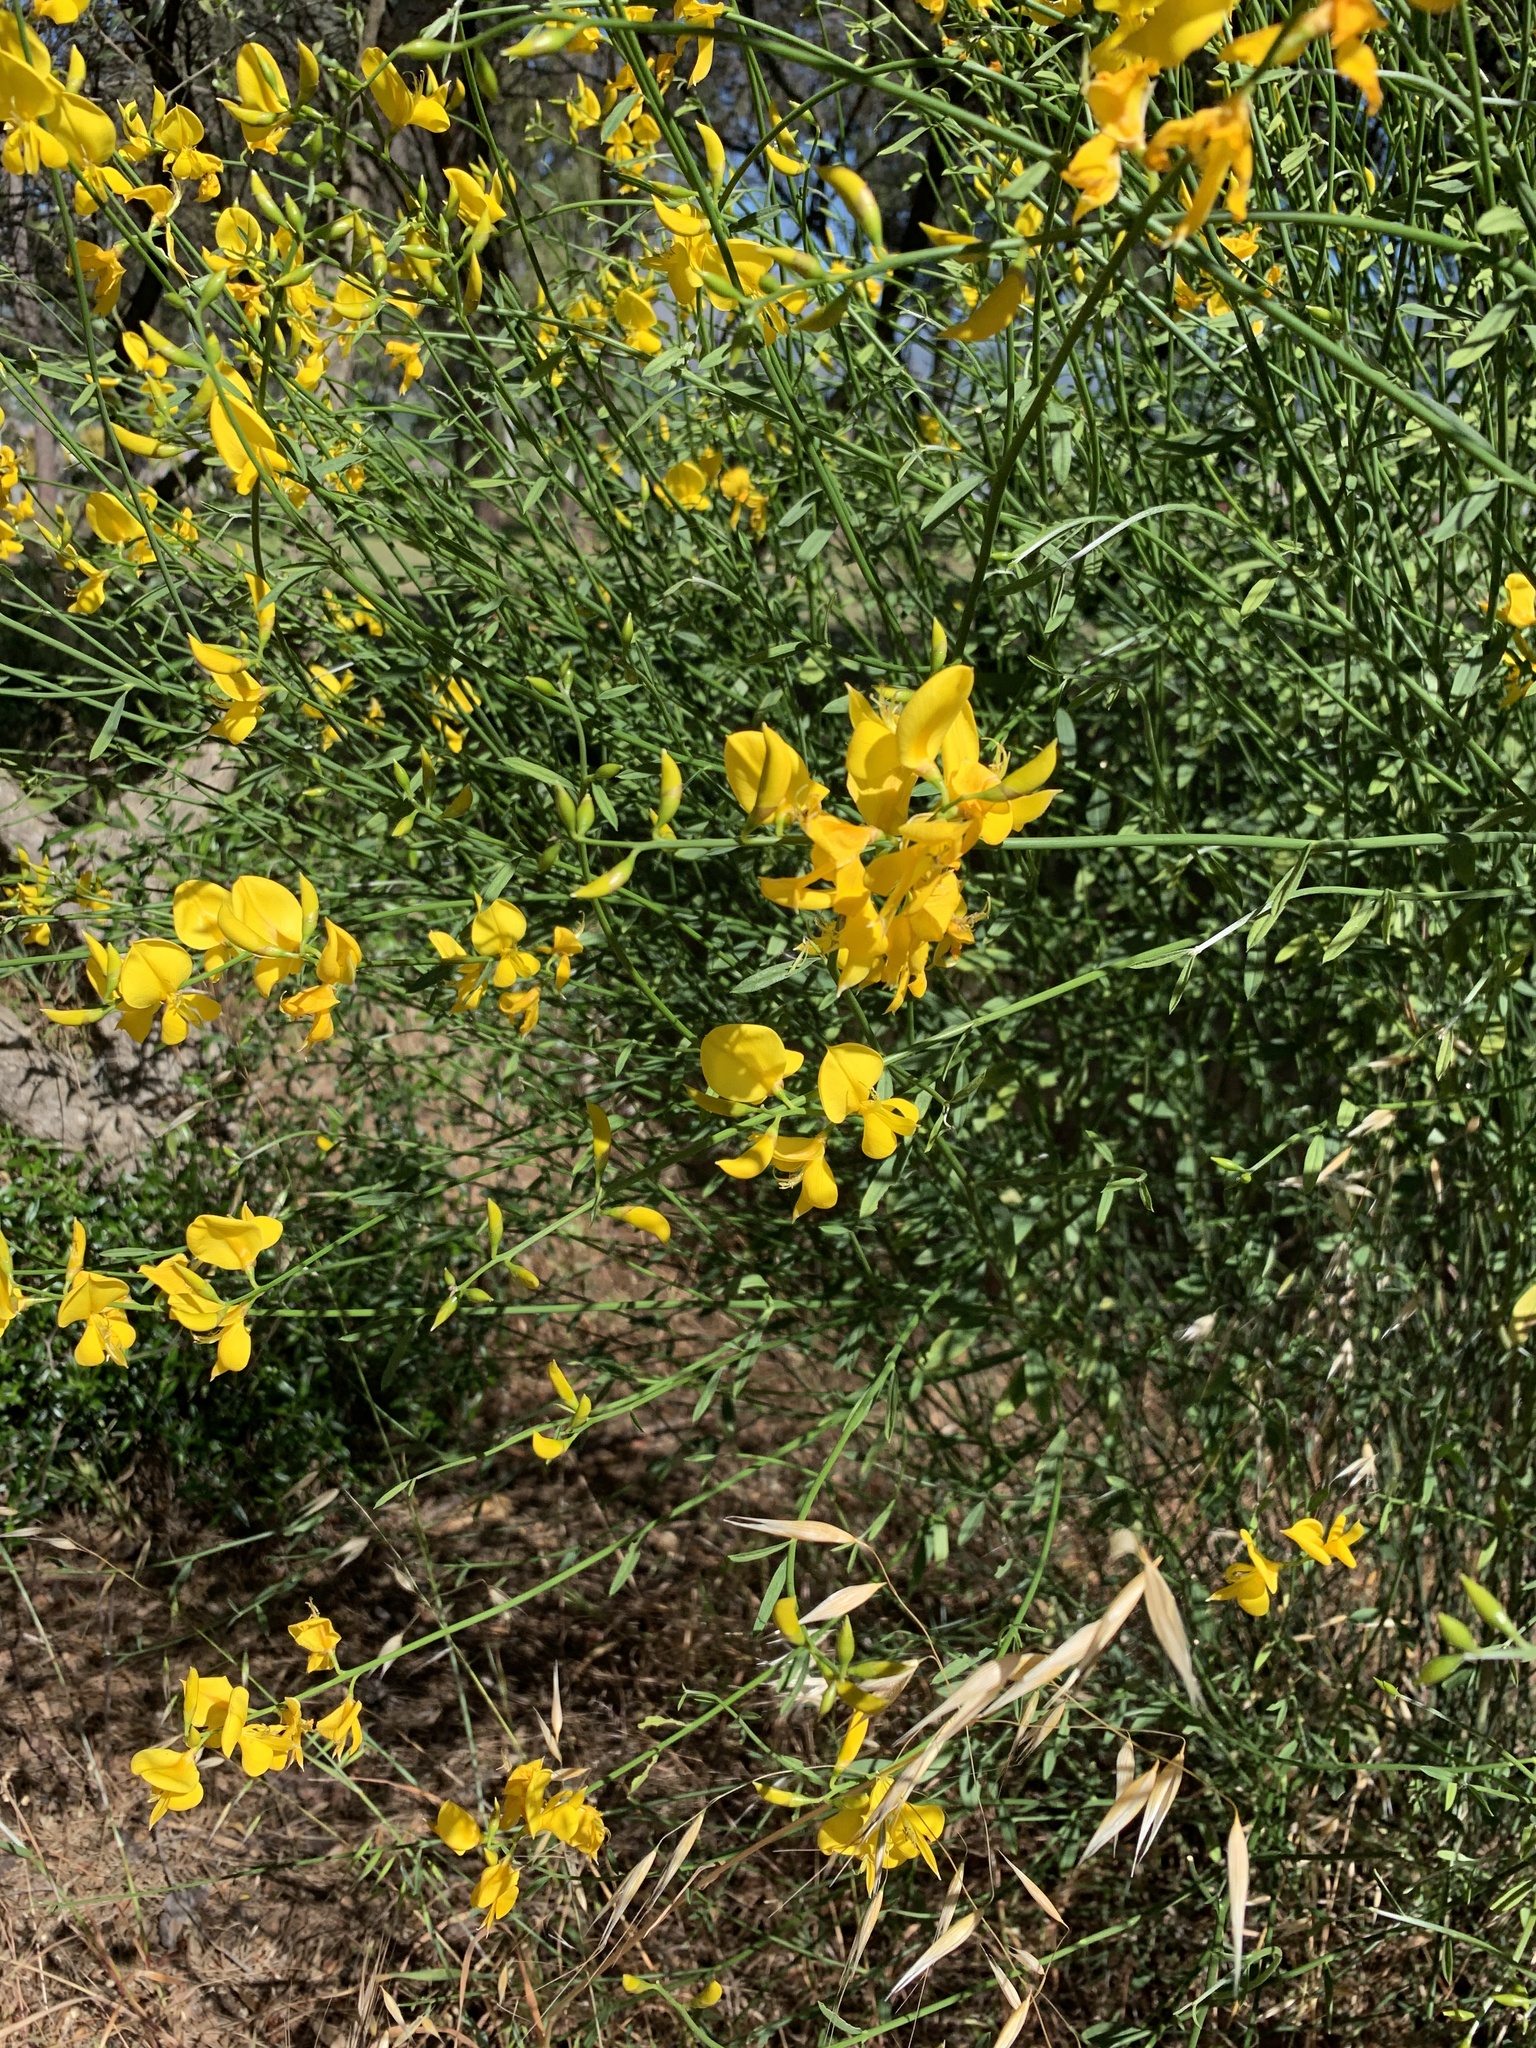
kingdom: Plantae
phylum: Tracheophyta
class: Magnoliopsida
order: Fabales
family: Fabaceae
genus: Spartium
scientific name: Spartium junceum
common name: Spanish broom
